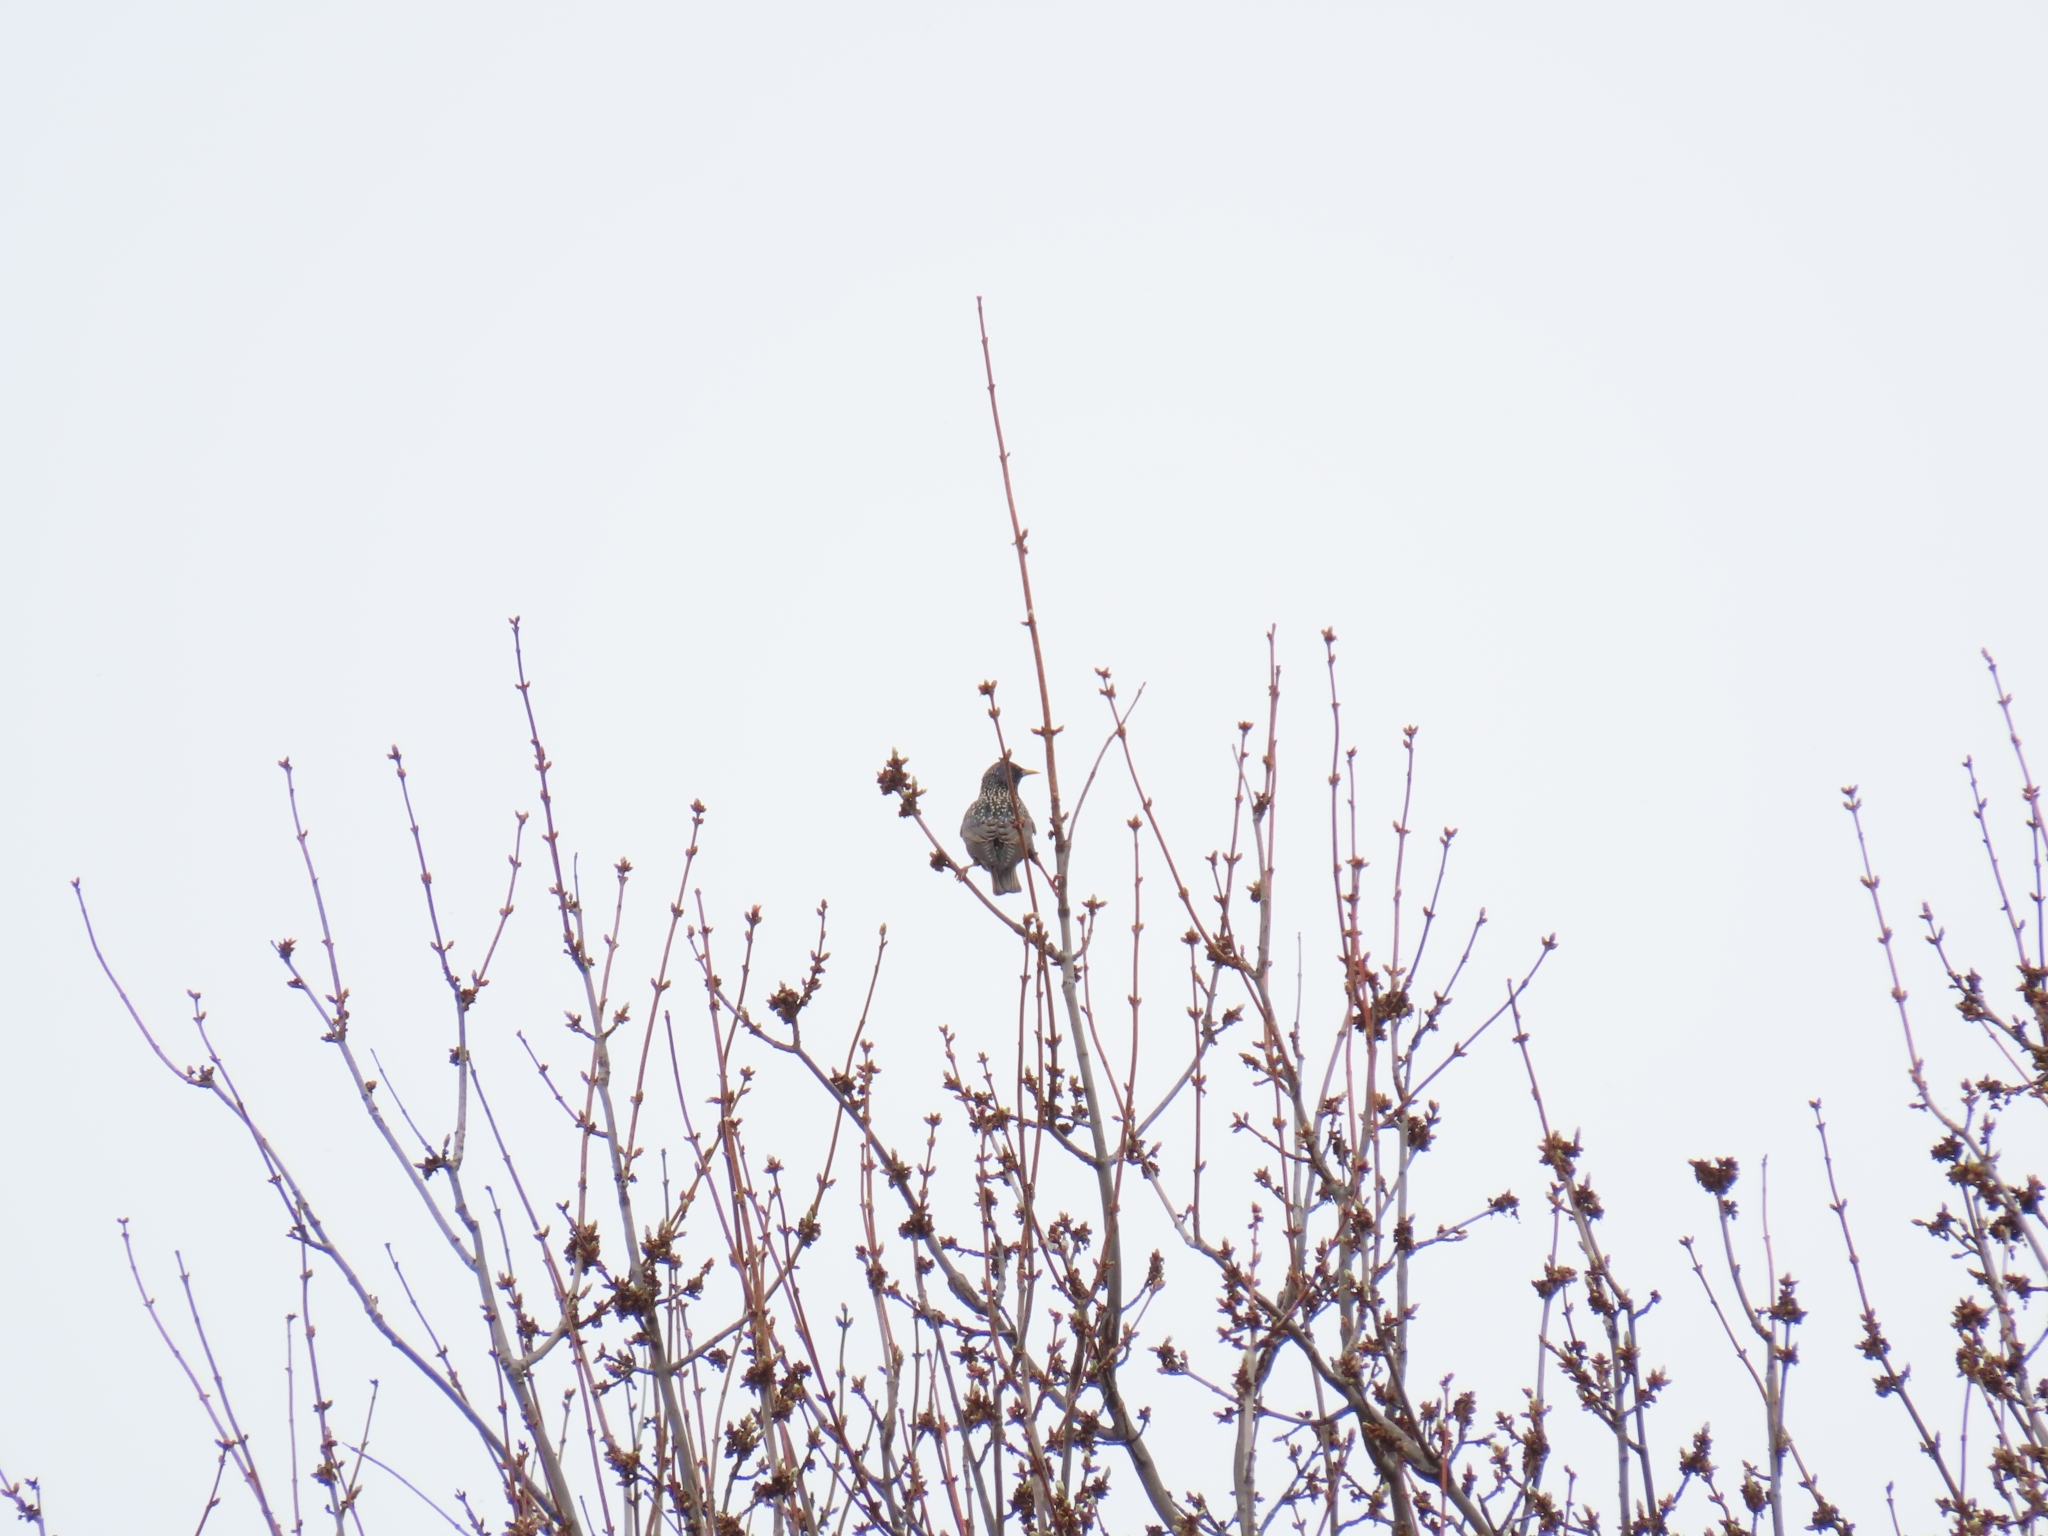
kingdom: Animalia
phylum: Chordata
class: Aves
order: Passeriformes
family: Sturnidae
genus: Sturnus
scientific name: Sturnus vulgaris
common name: Common starling
